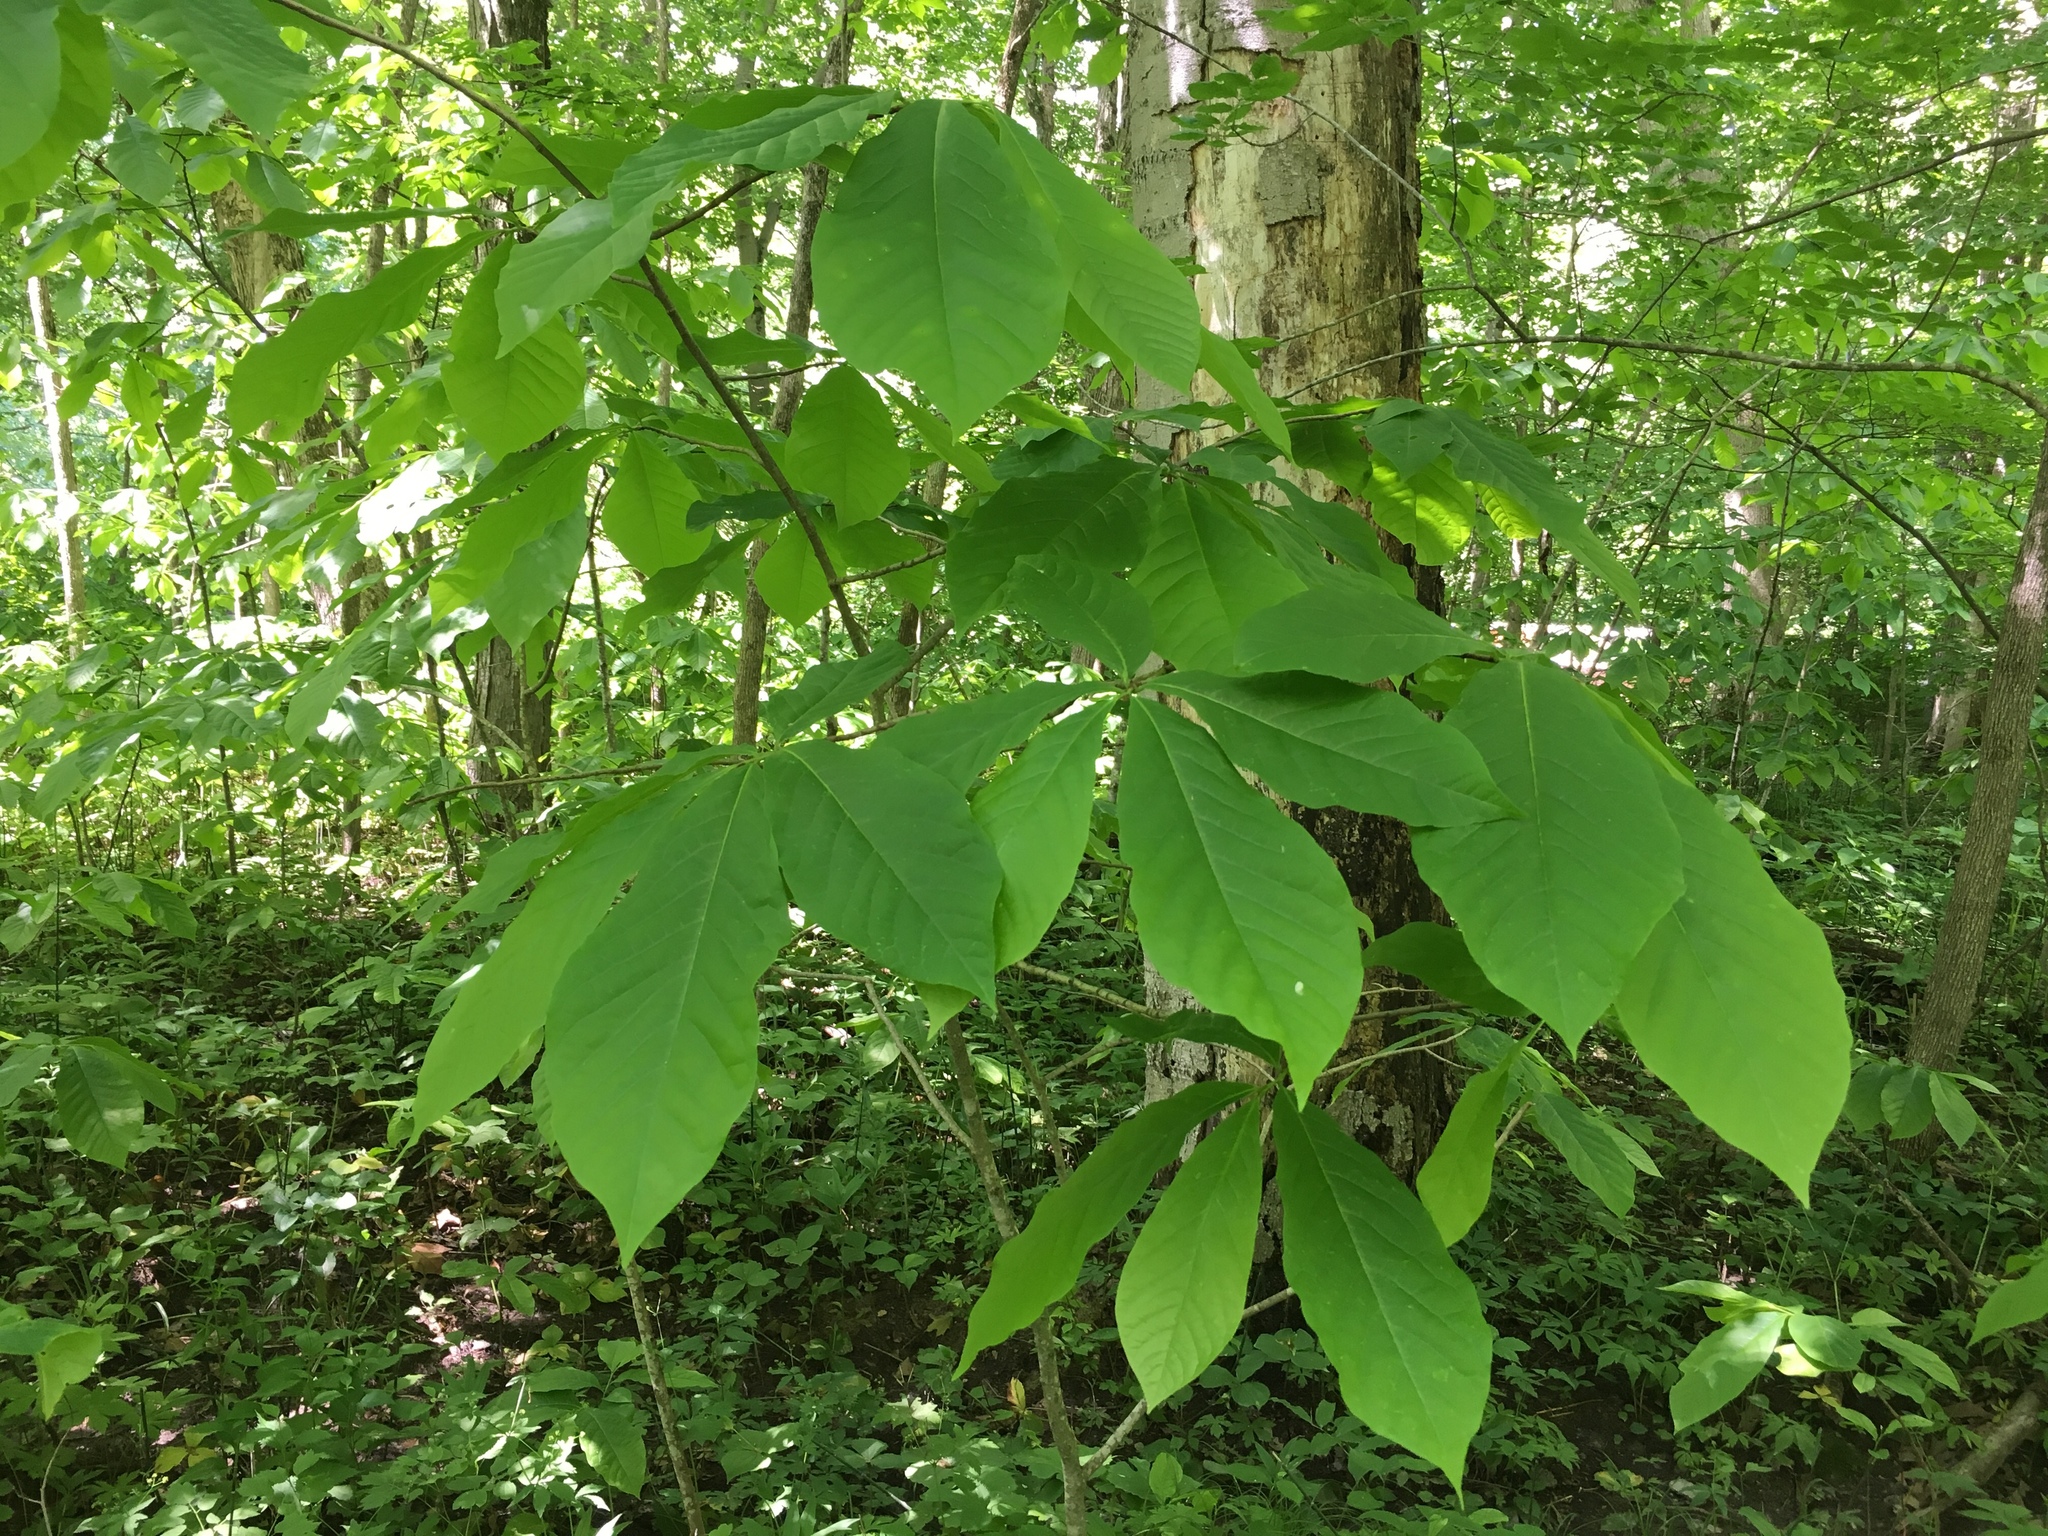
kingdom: Plantae
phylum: Tracheophyta
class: Magnoliopsida
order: Magnoliales
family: Annonaceae
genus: Asimina
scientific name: Asimina triloba
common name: Dog-banana
